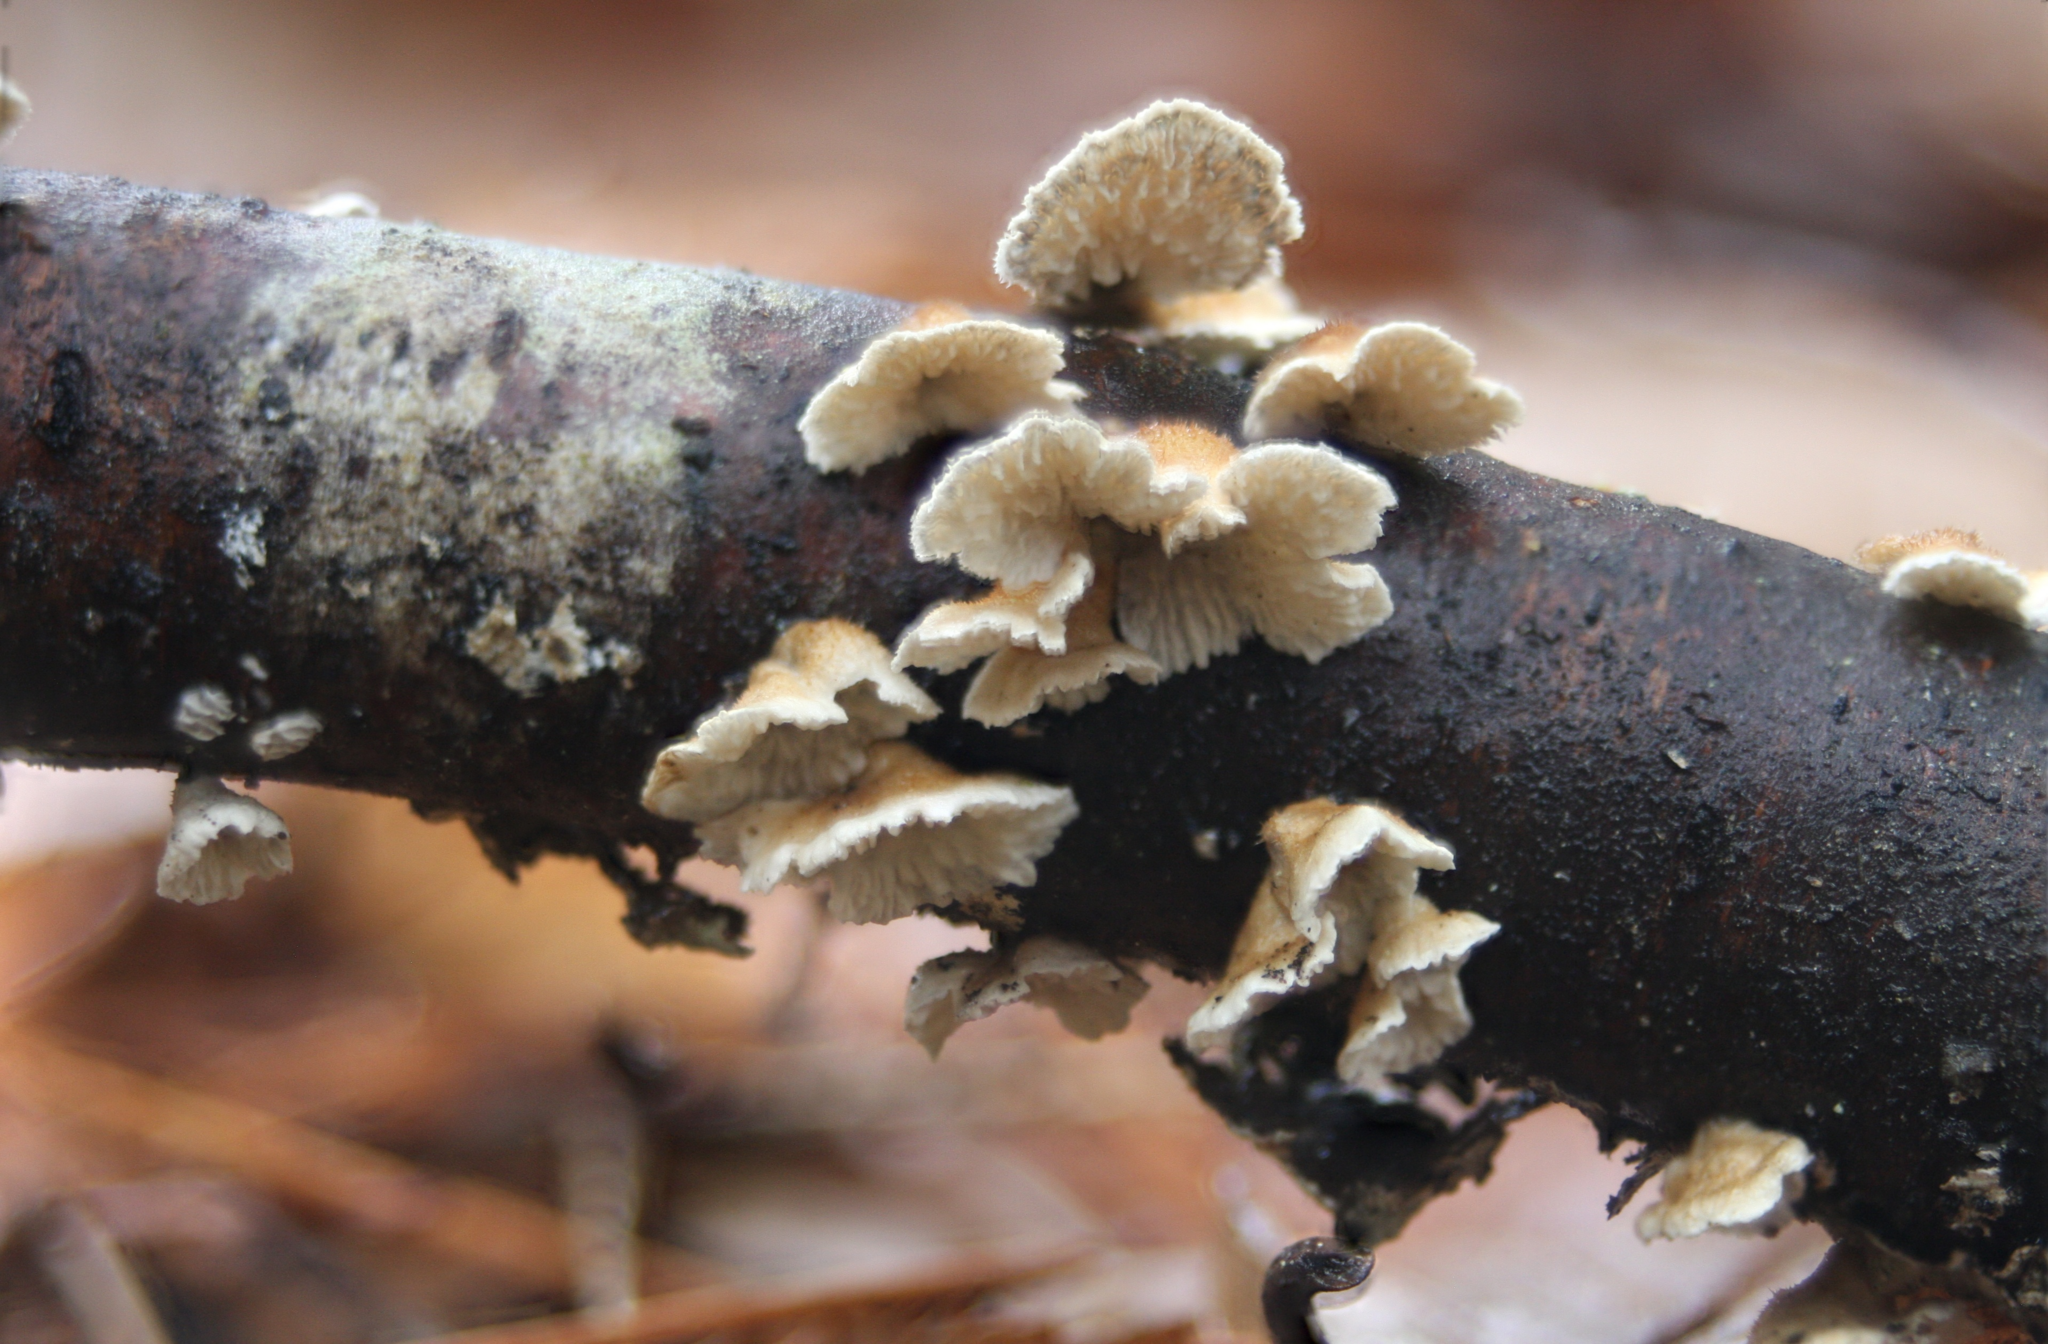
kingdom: Fungi
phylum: Basidiomycota
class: Agaricomycetes
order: Amylocorticiales
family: Amylocorticiaceae
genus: Plicaturopsis
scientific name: Plicaturopsis crispa
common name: Crimped gill
